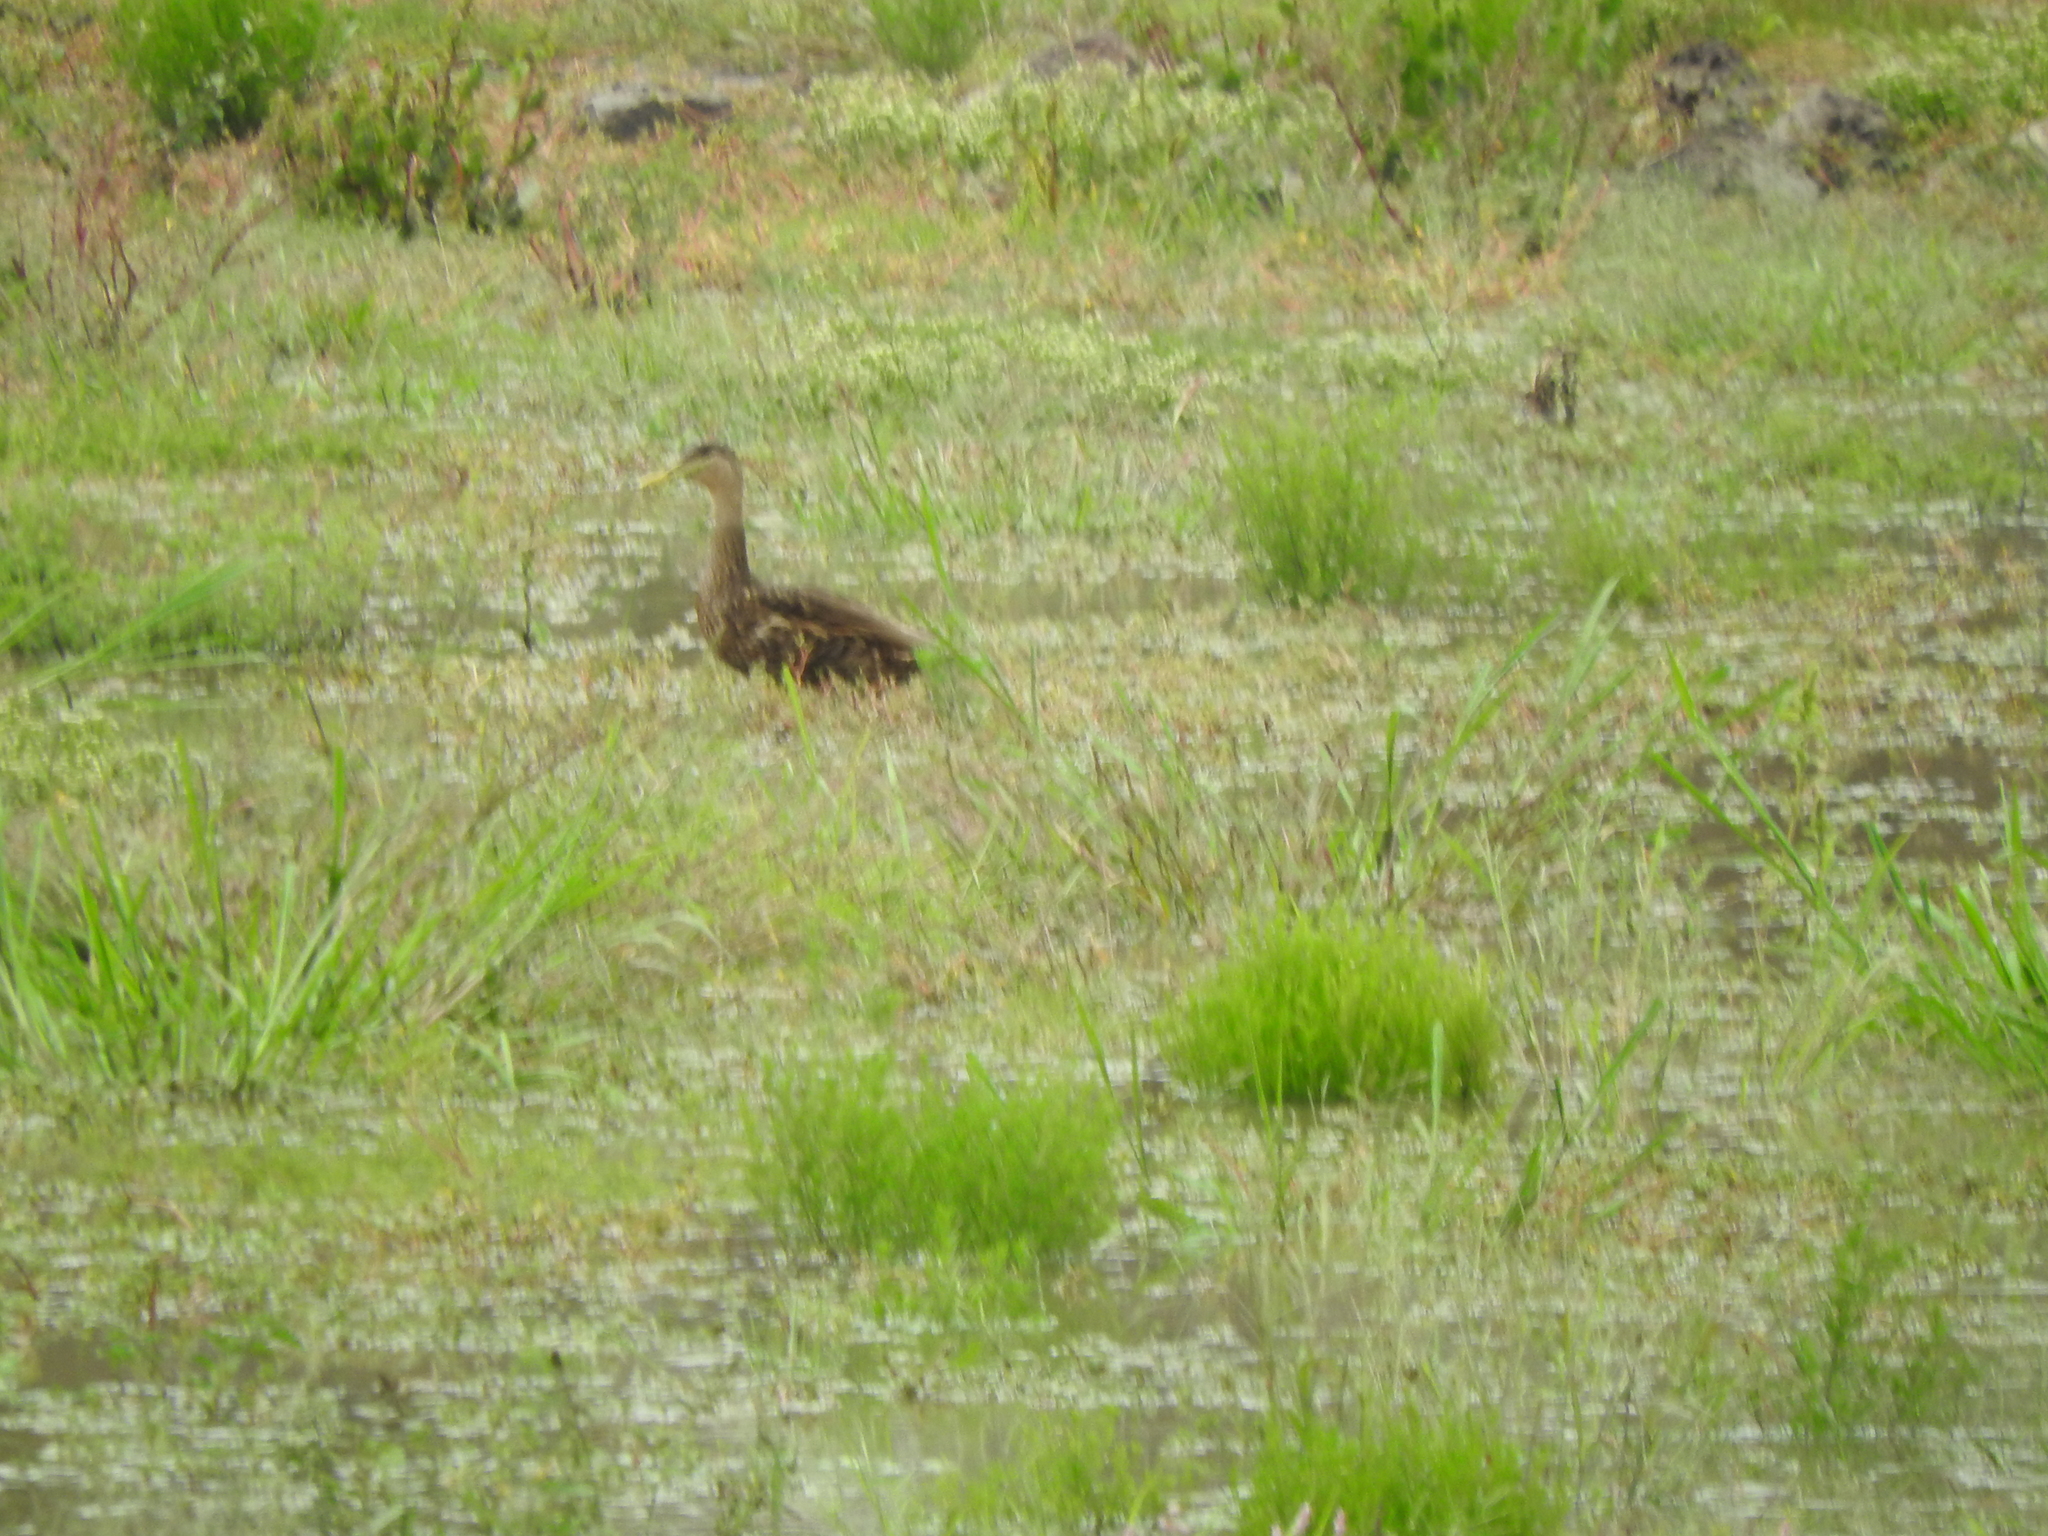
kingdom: Animalia
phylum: Chordata
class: Aves
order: Anseriformes
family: Anatidae
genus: Anas
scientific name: Anas diazi
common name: Mexican duck
